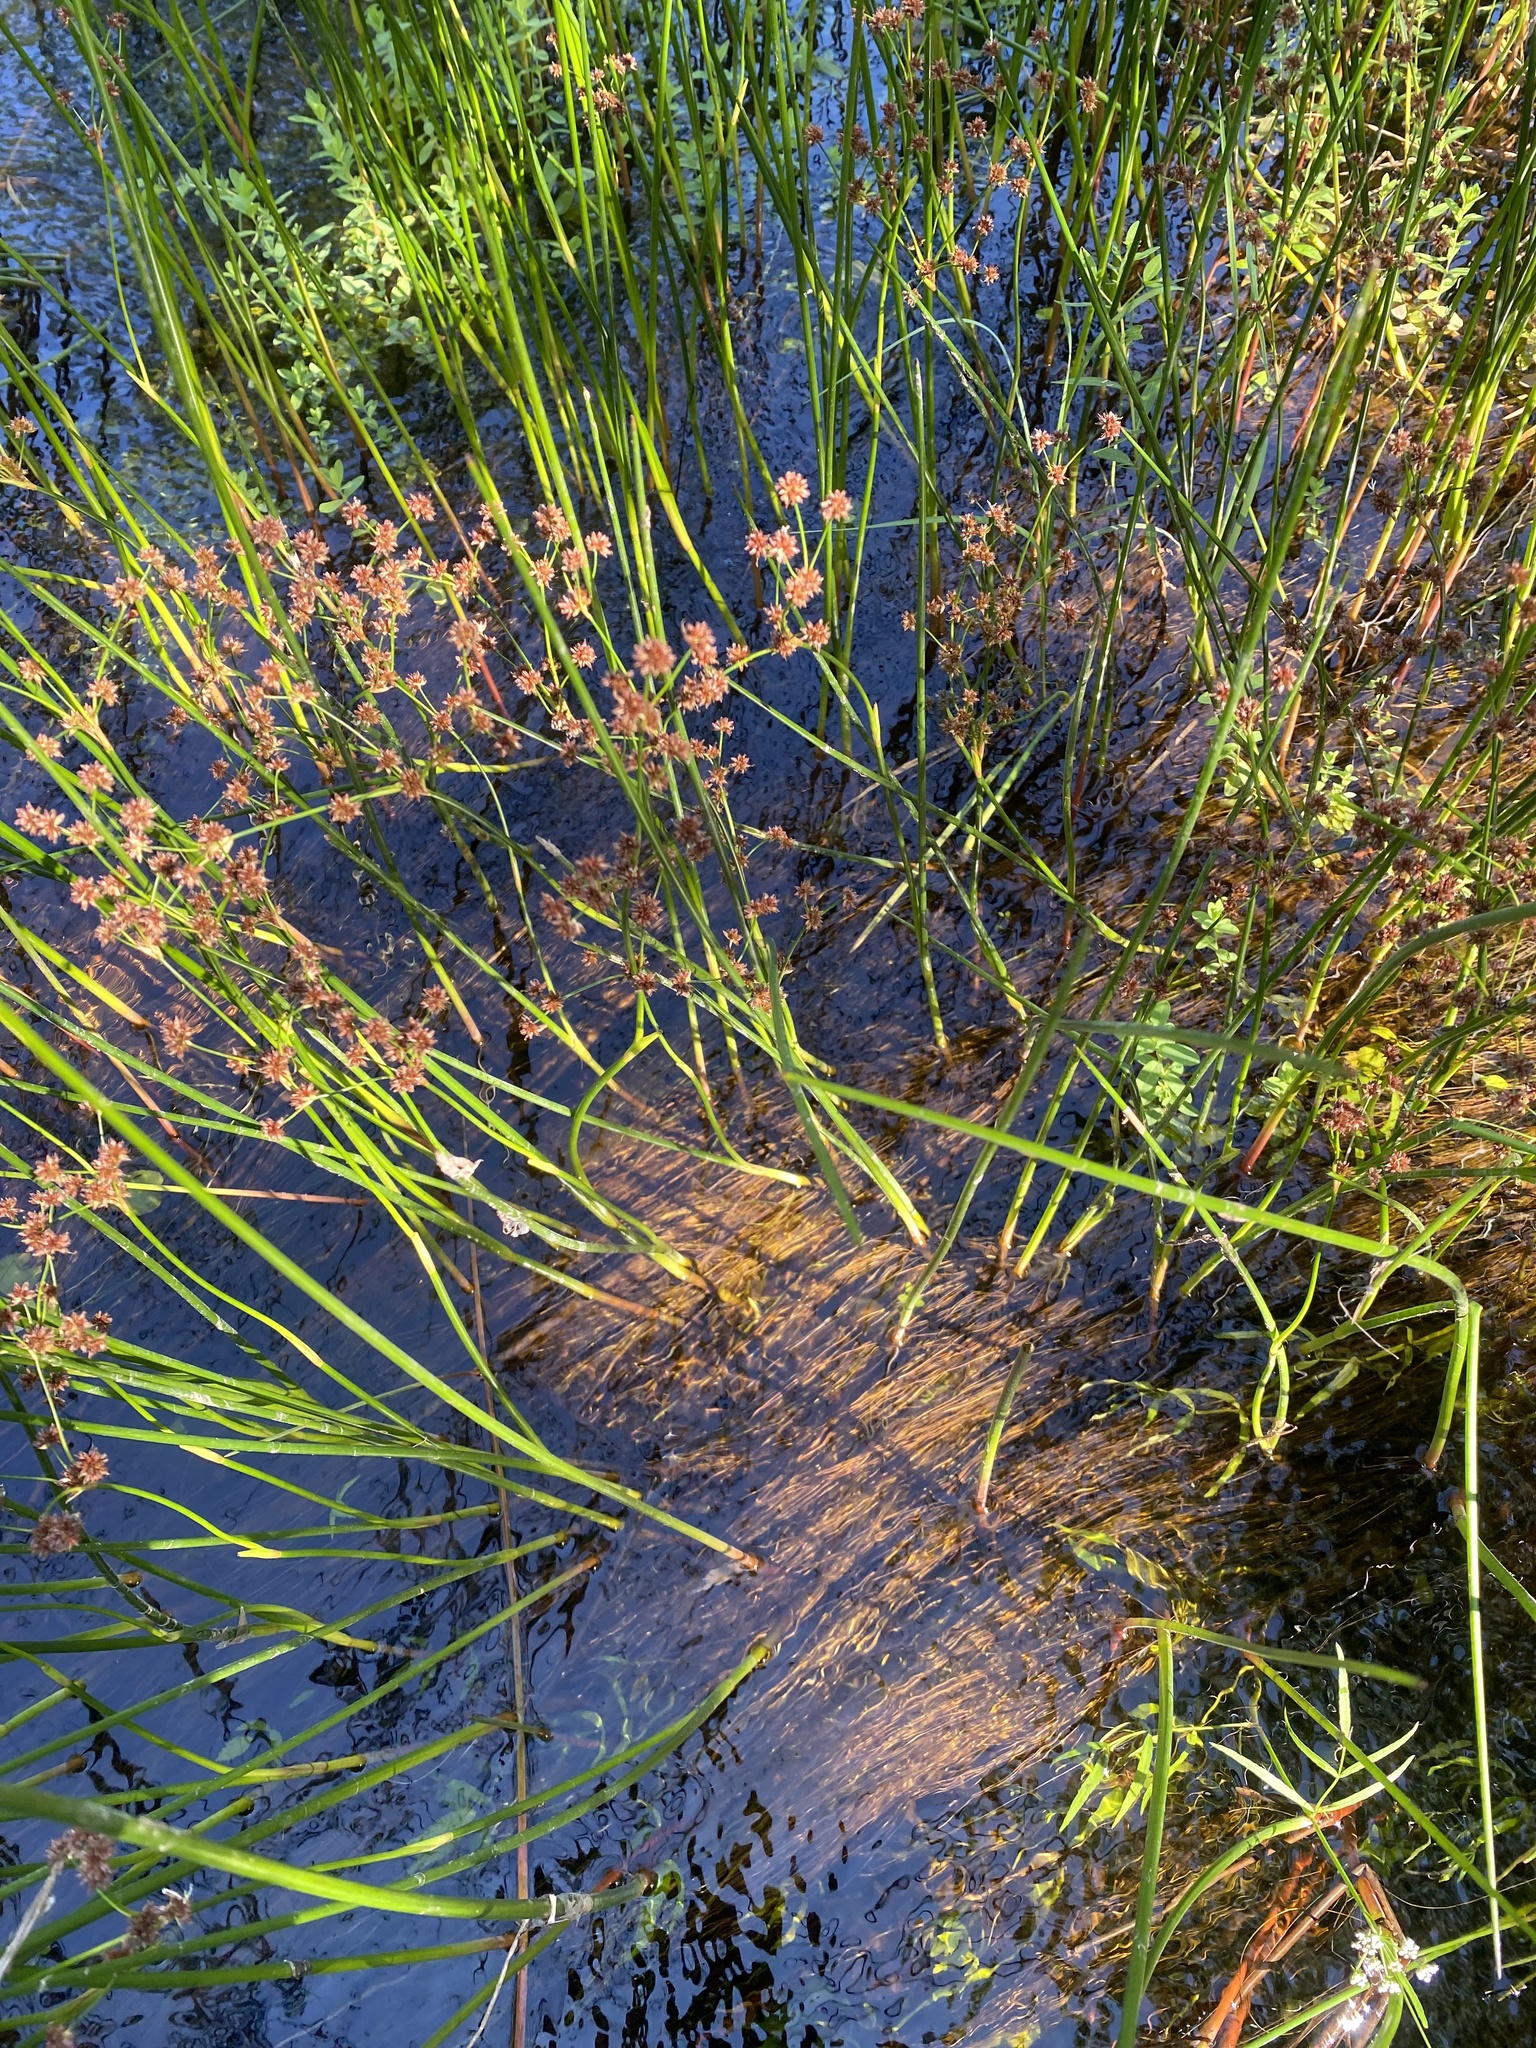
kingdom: Plantae
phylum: Tracheophyta
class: Liliopsida
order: Poales
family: Juncaceae
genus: Juncus
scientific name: Juncus militaris
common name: Bayonet rush
